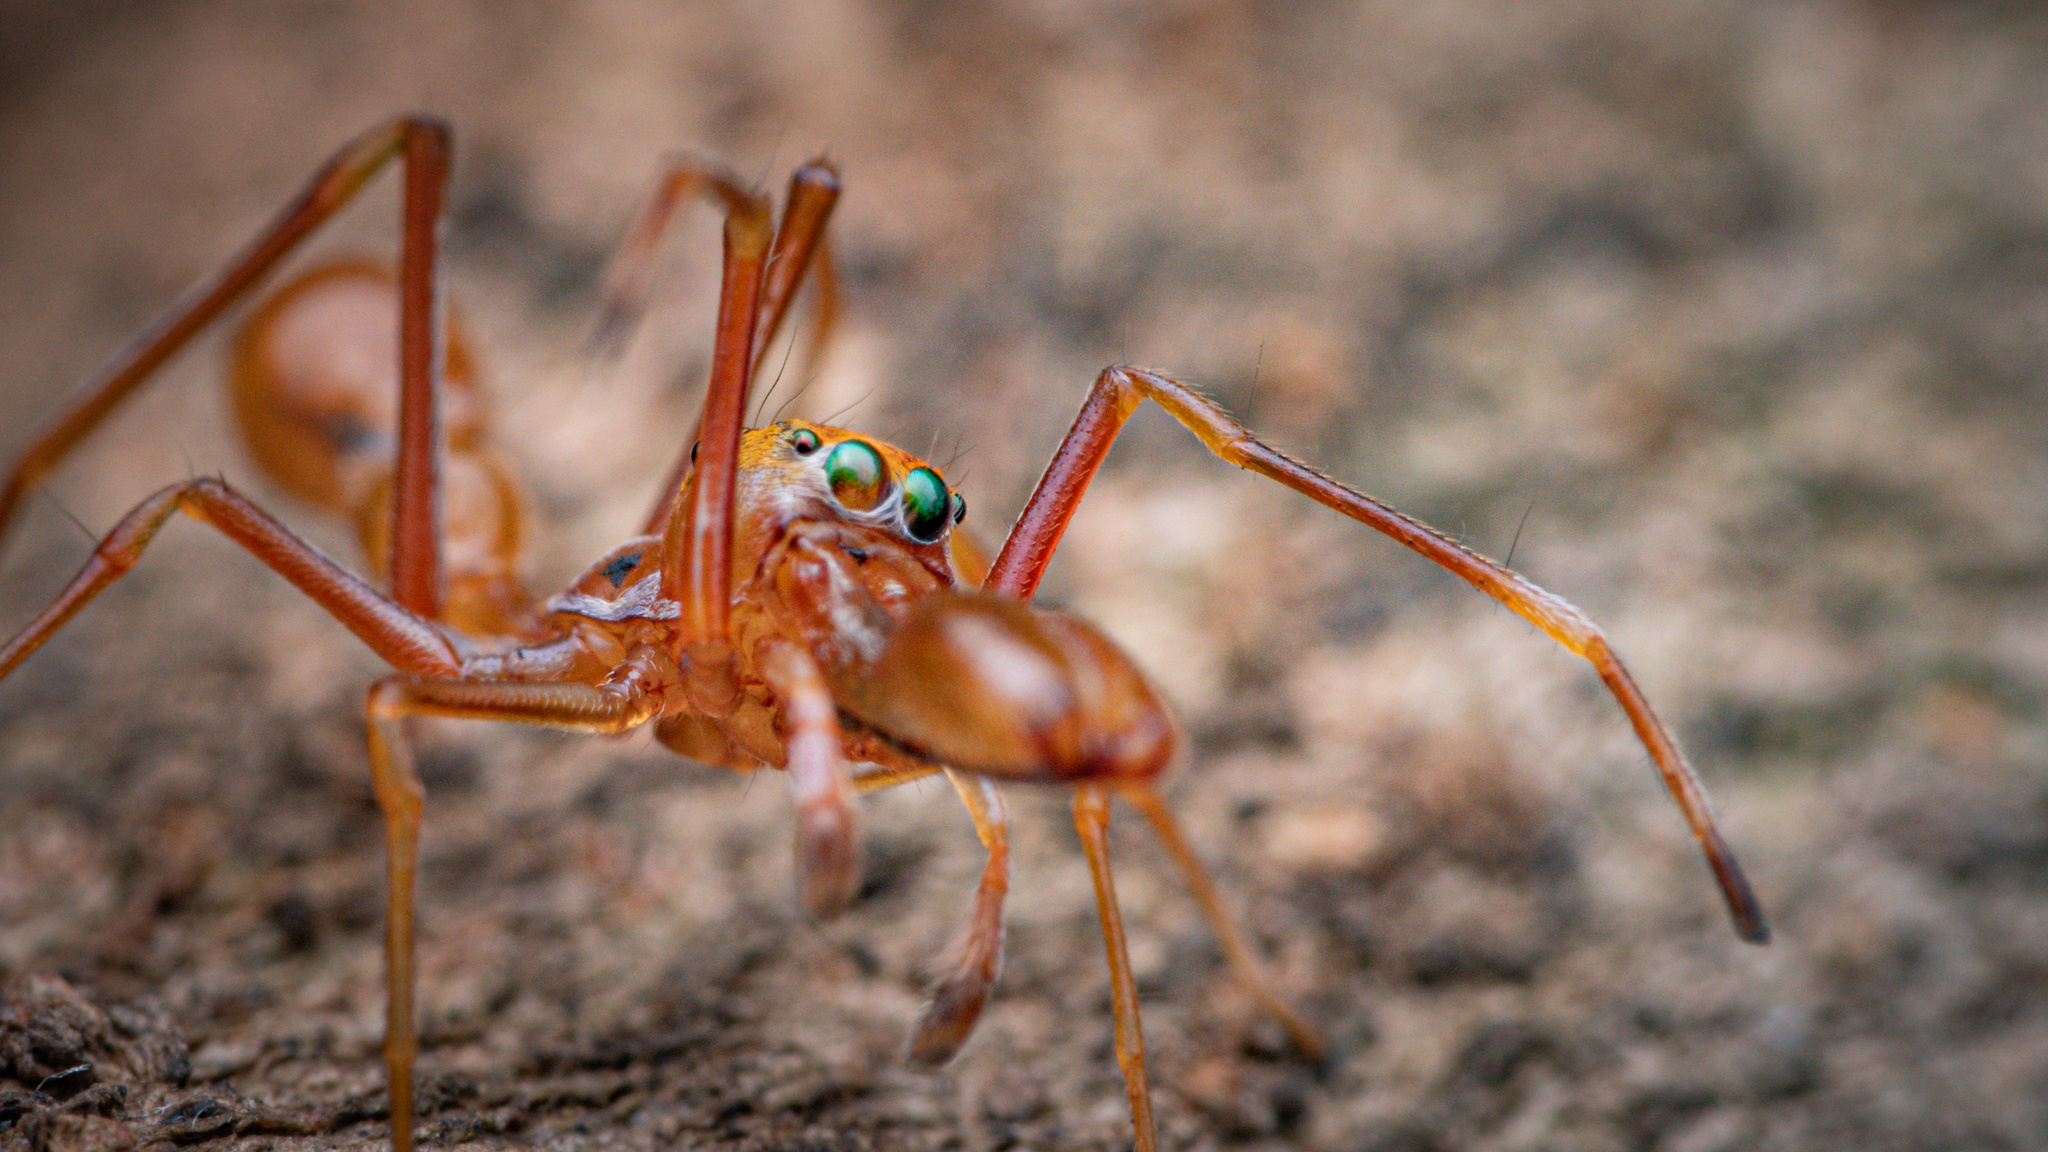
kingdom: Animalia
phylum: Arthropoda
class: Arachnida
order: Araneae
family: Salticidae
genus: Myrmarachne
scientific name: Myrmarachne assimilis
